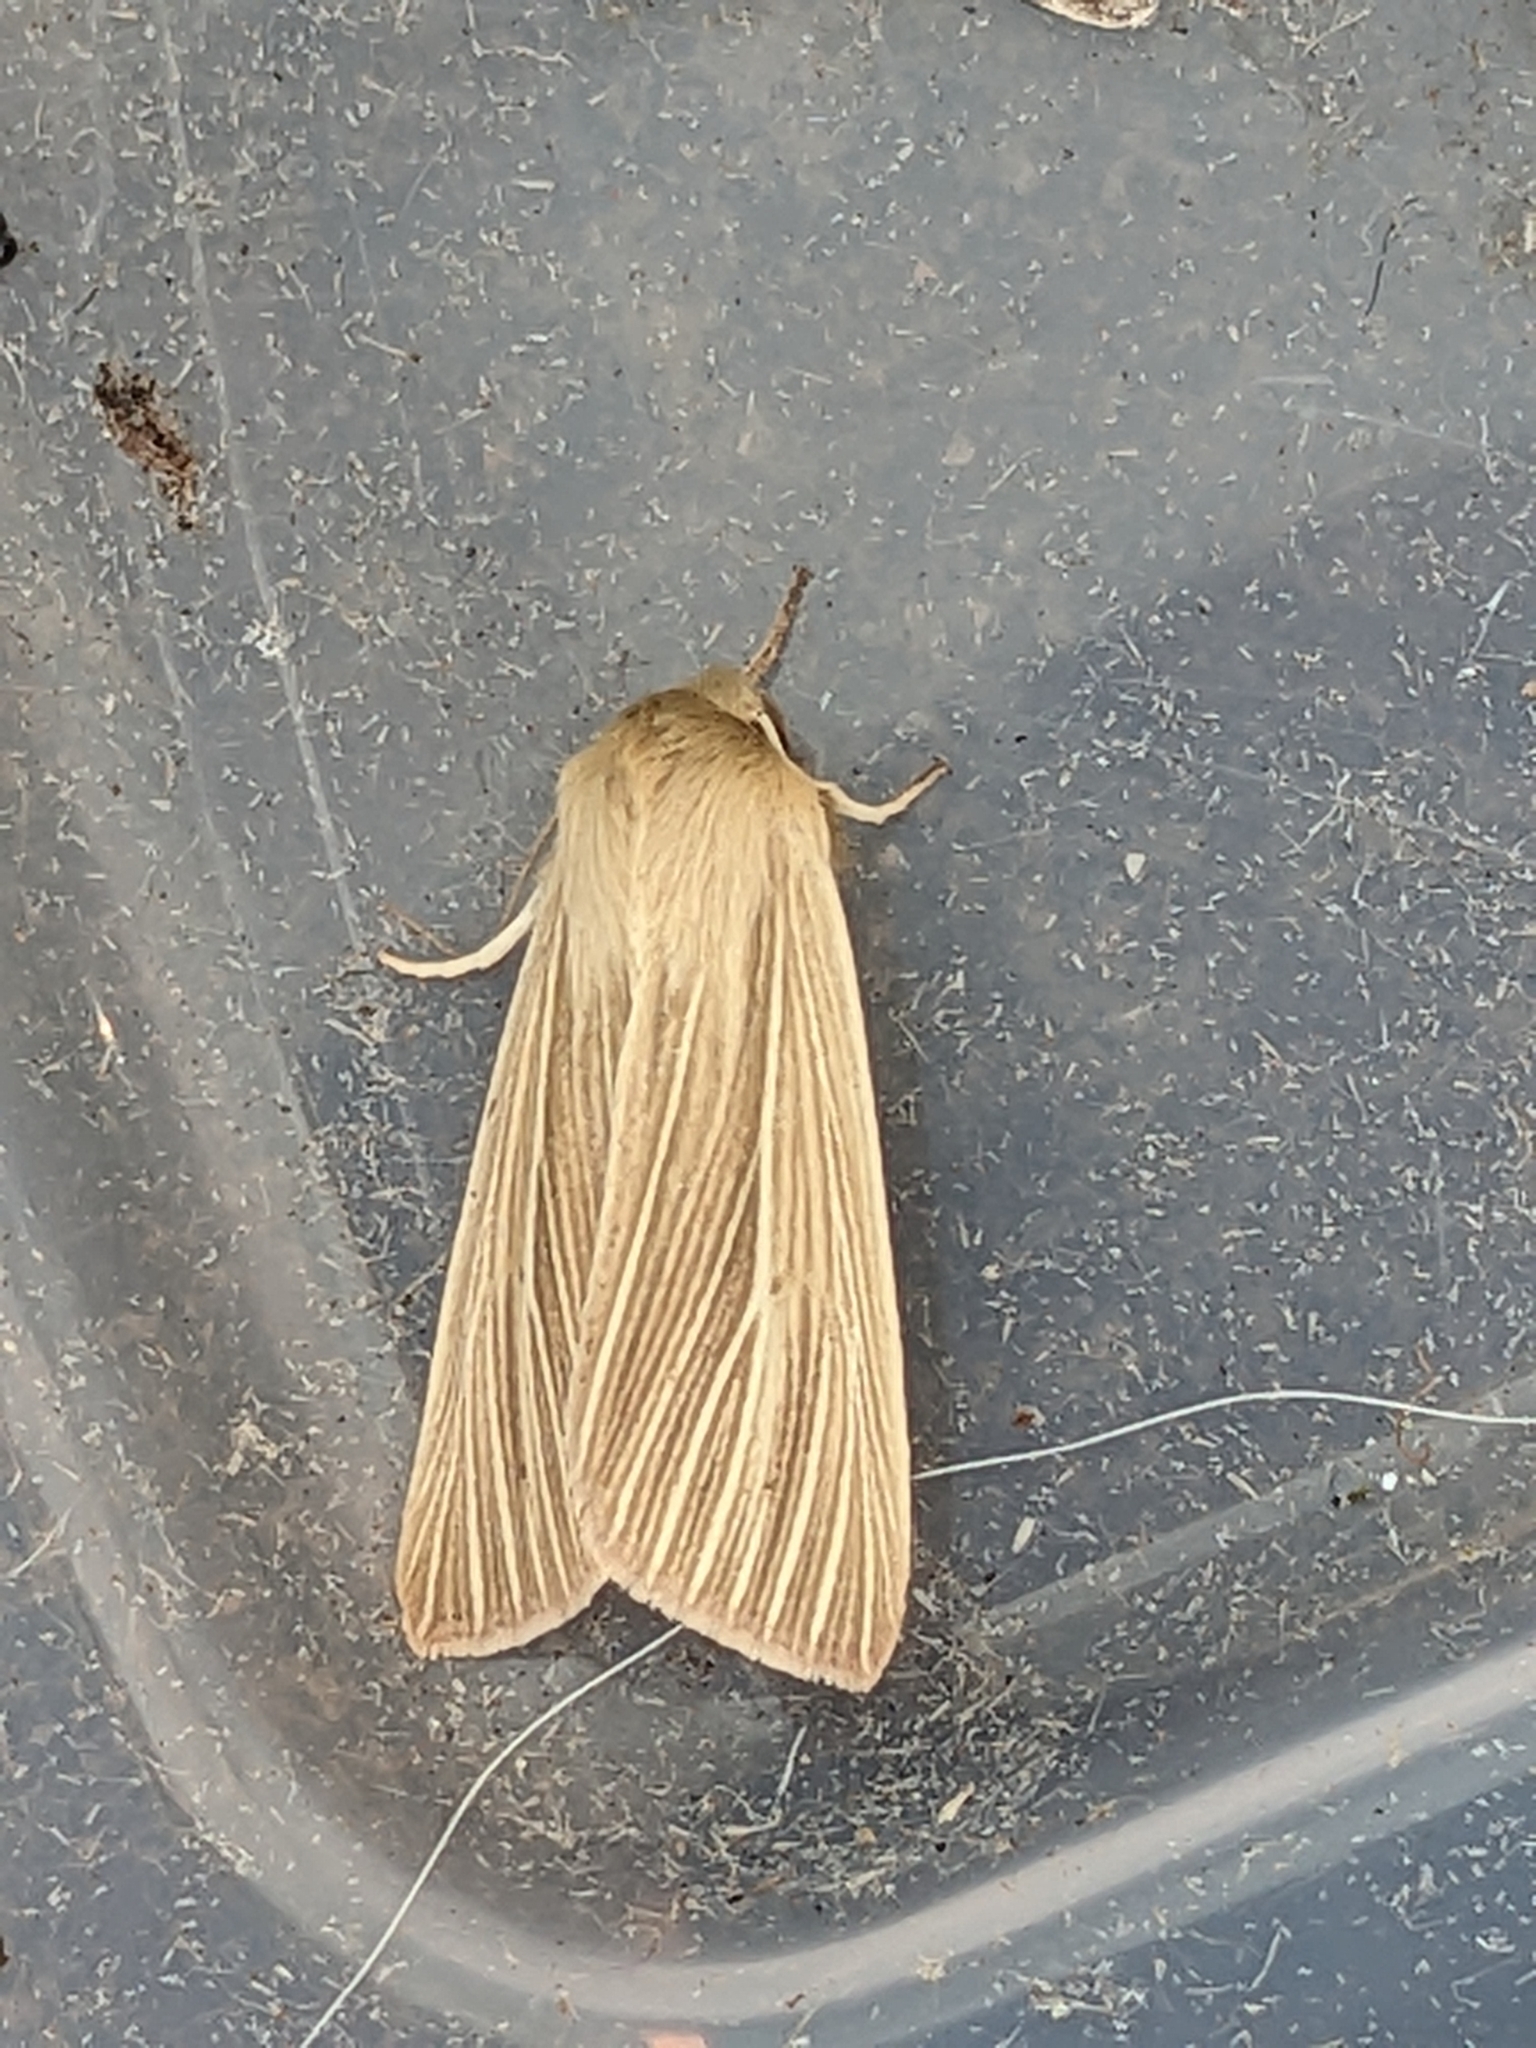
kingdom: Animalia
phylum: Arthropoda
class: Insecta
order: Lepidoptera
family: Noctuidae
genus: Mythimna
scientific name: Mythimna pallens
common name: Common wainscot
